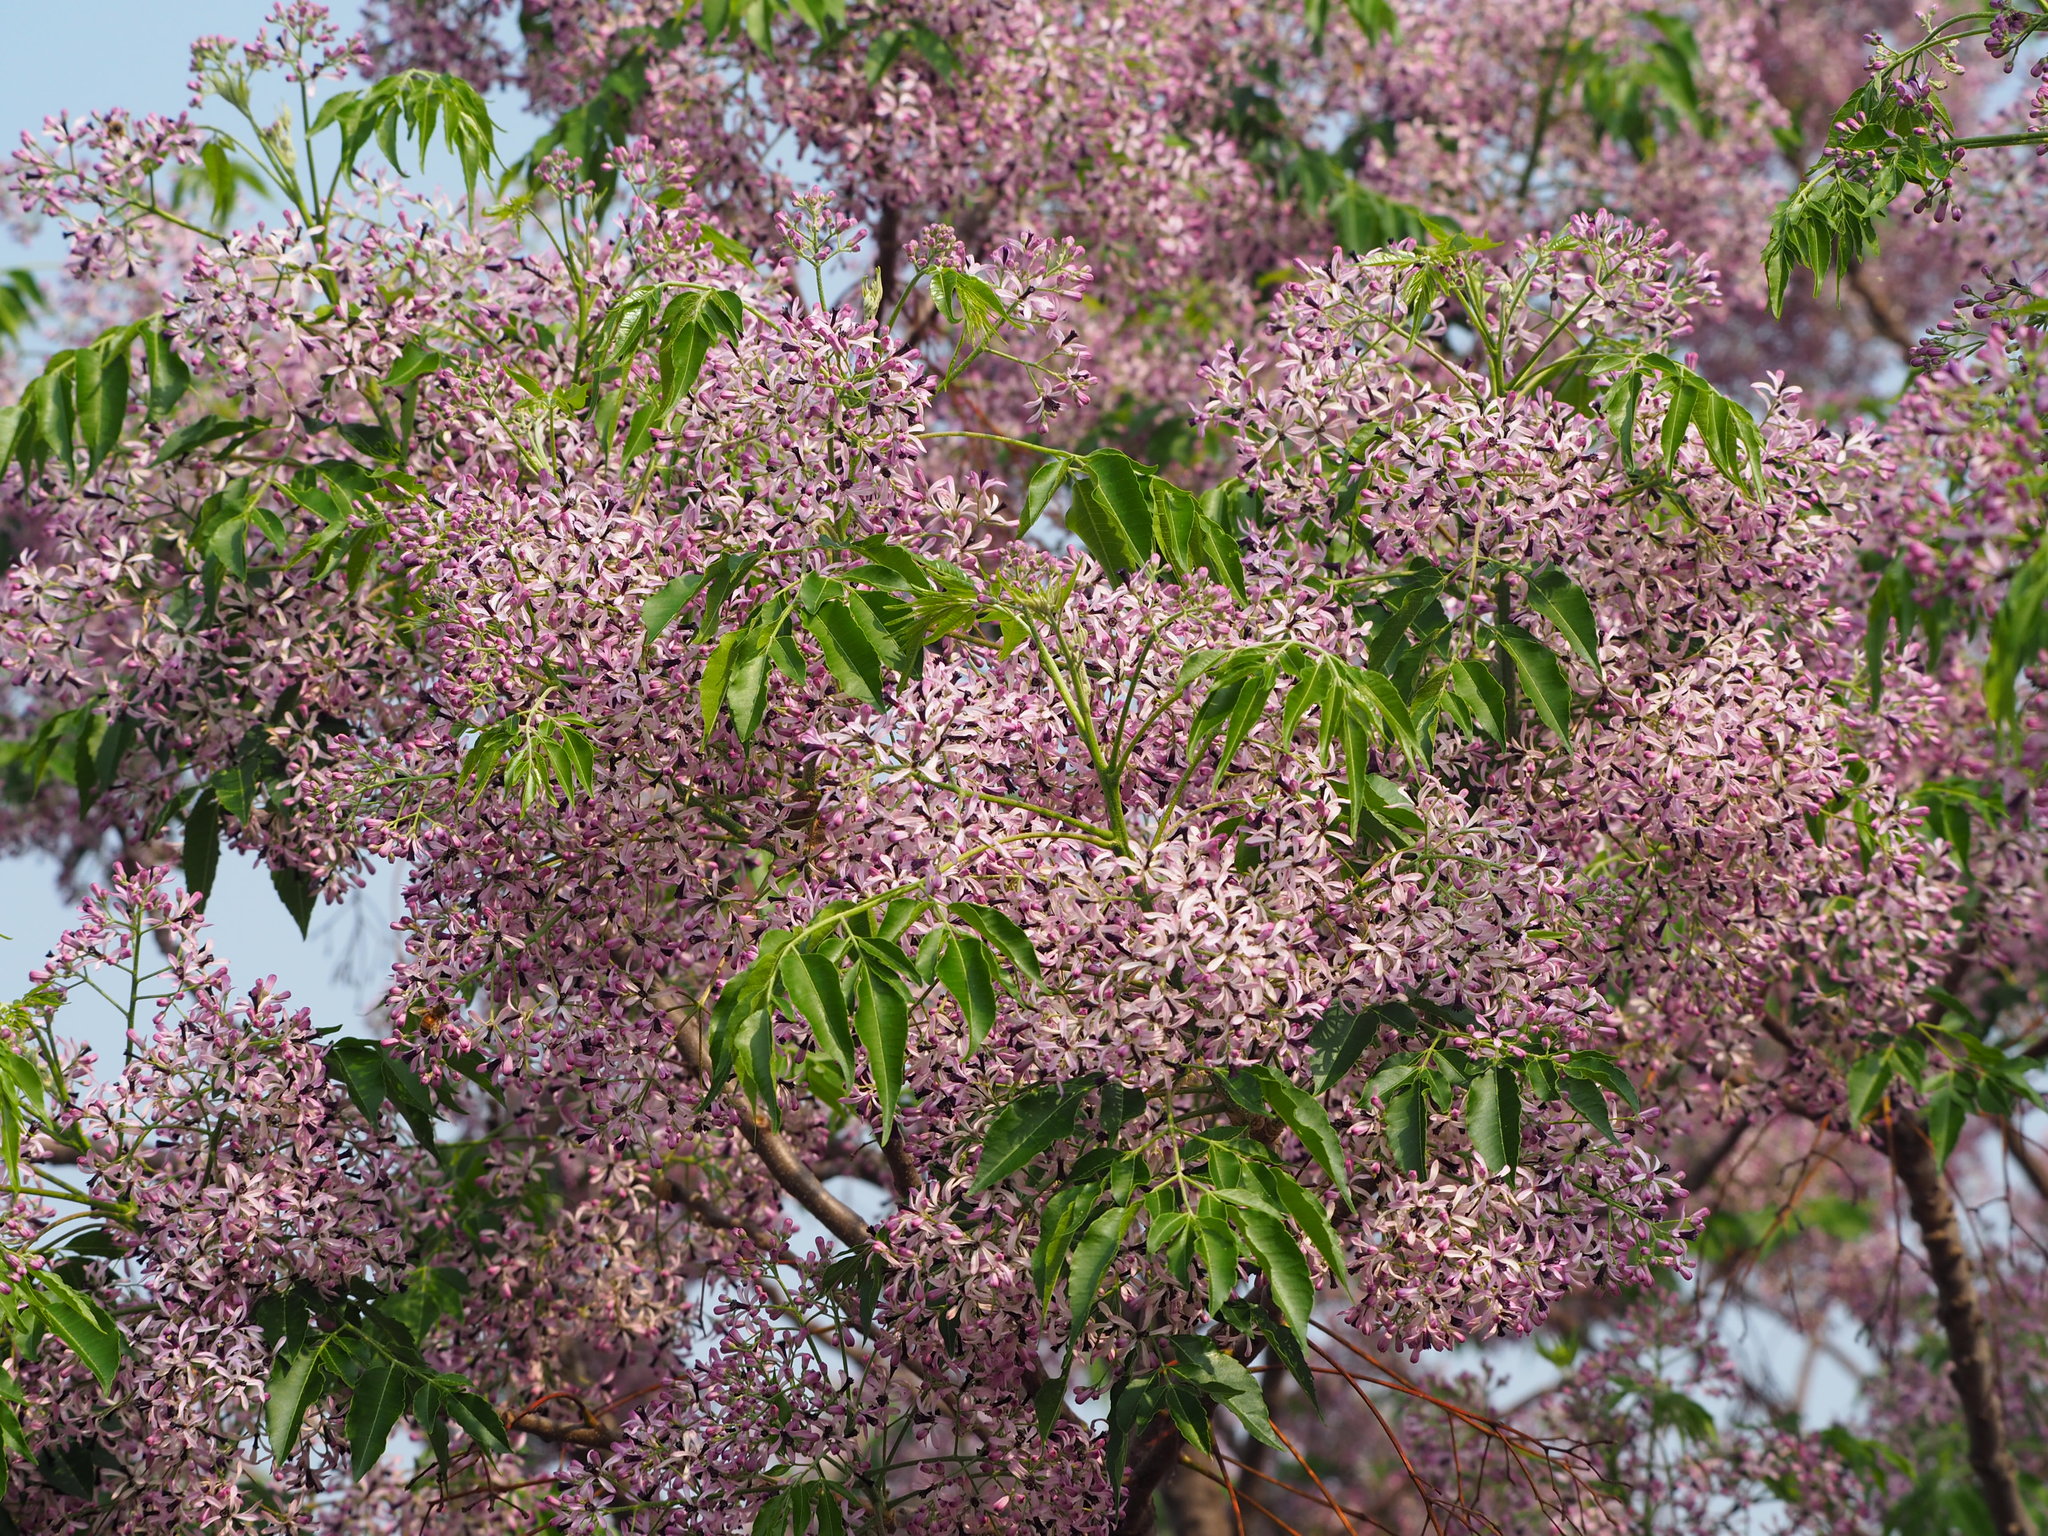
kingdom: Plantae
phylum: Tracheophyta
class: Magnoliopsida
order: Sapindales
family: Meliaceae
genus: Melia
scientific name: Melia azedarach
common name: Chinaberrytree
